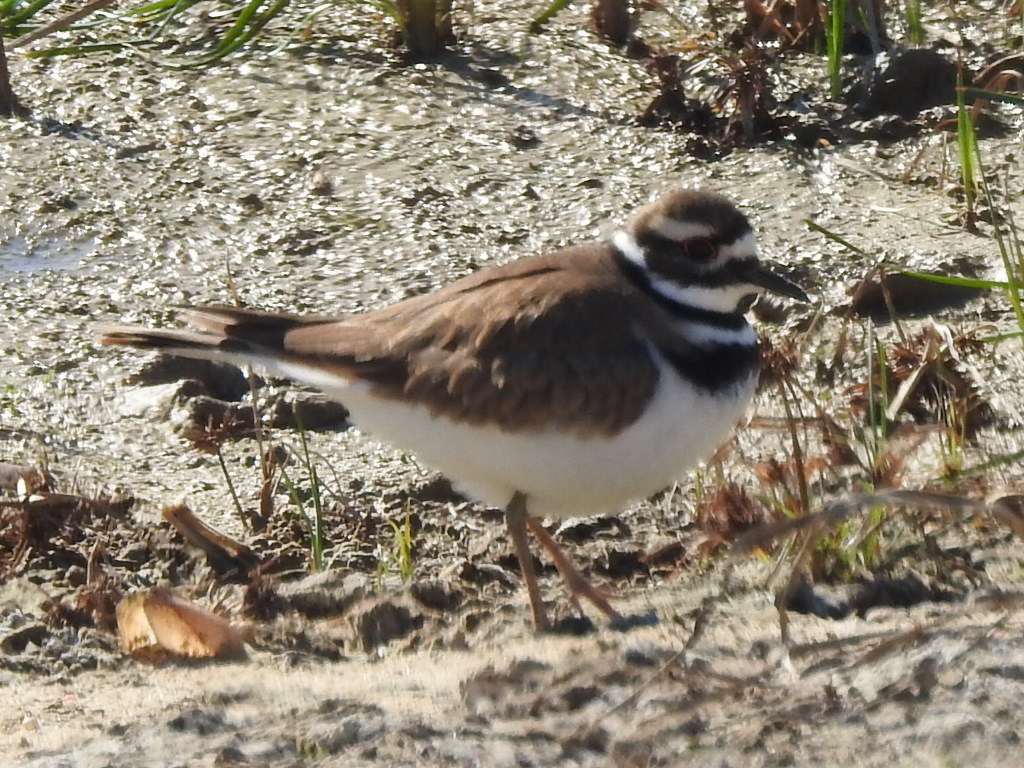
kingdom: Animalia
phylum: Chordata
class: Aves
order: Charadriiformes
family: Charadriidae
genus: Charadrius
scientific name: Charadrius vociferus
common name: Killdeer
